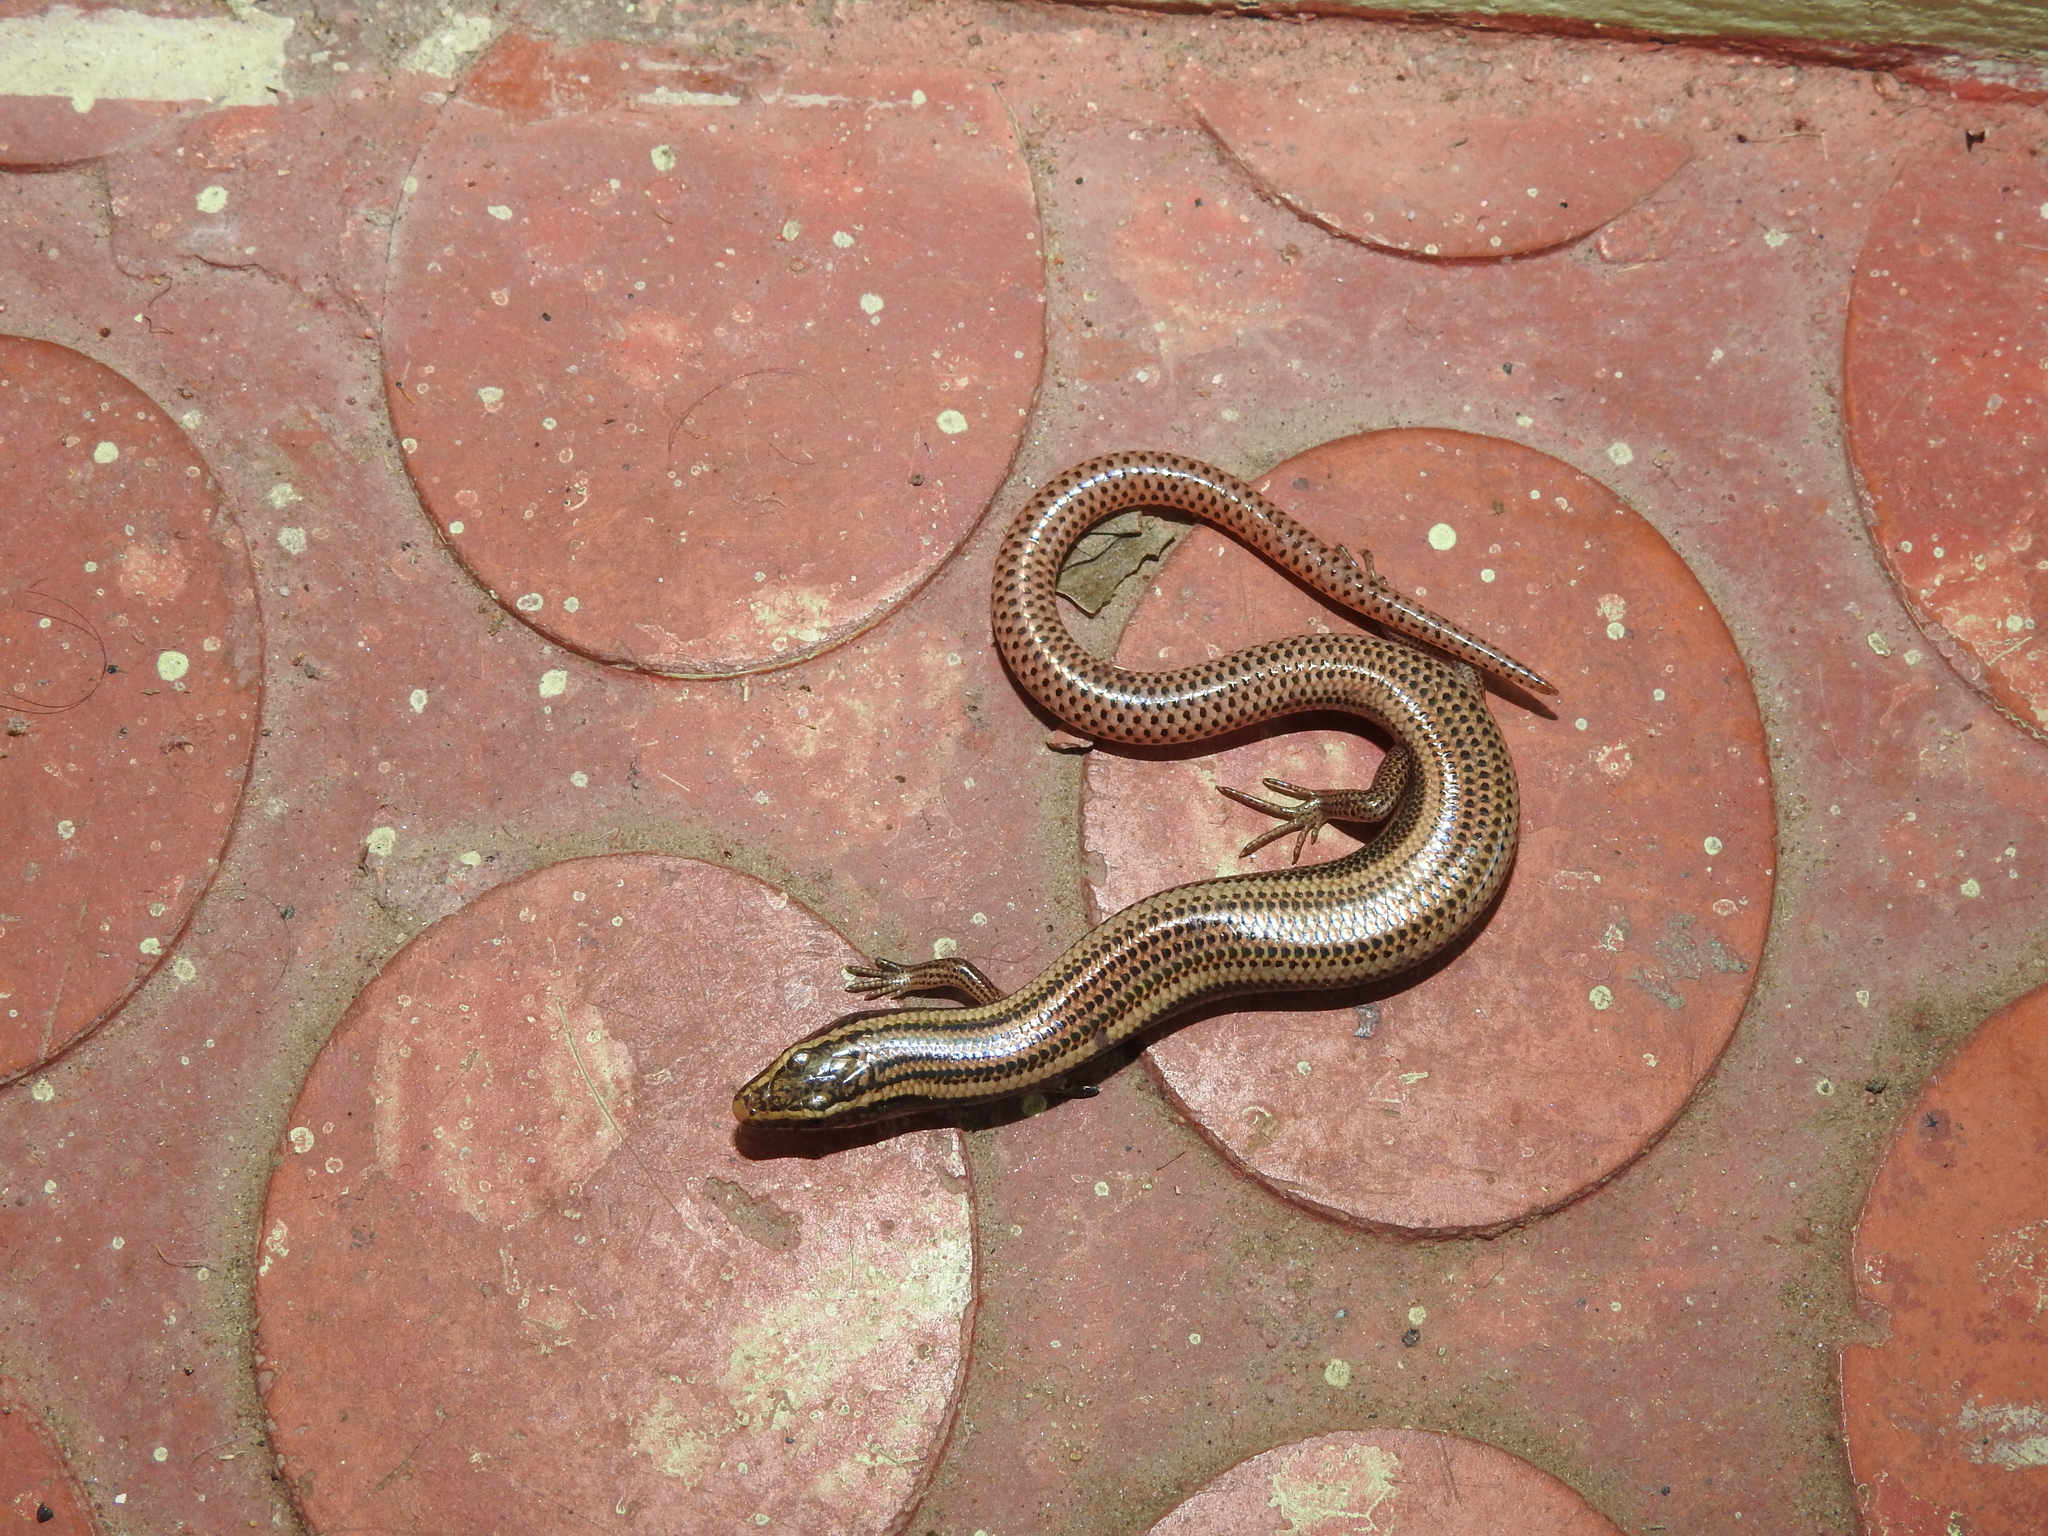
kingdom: Animalia
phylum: Chordata
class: Squamata
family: Scincidae
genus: Riopa
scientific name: Riopa punctata
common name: Common dotted garden skink
